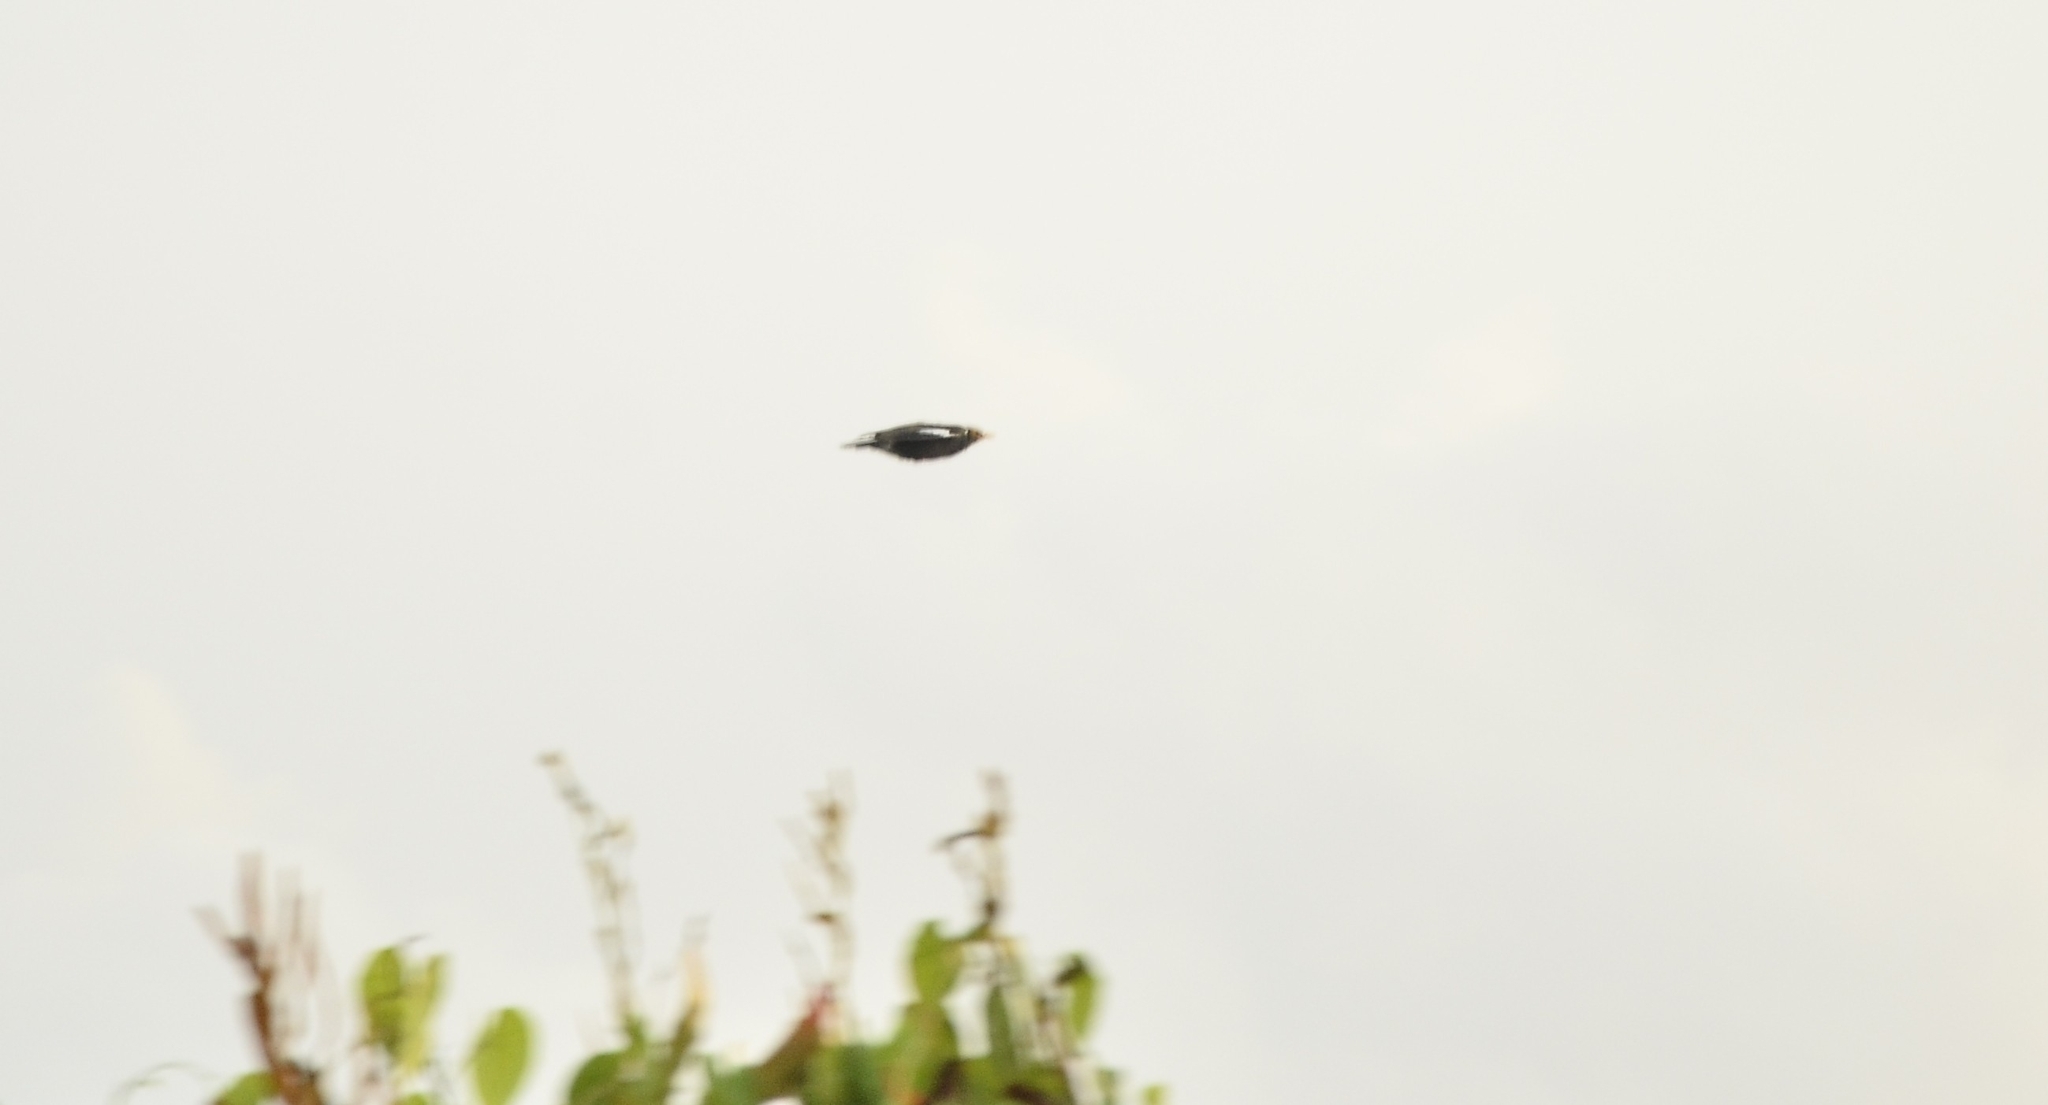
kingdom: Animalia
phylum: Chordata
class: Aves
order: Passeriformes
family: Sturnidae
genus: Acridotheres
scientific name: Acridotheres tristis
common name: Common myna
